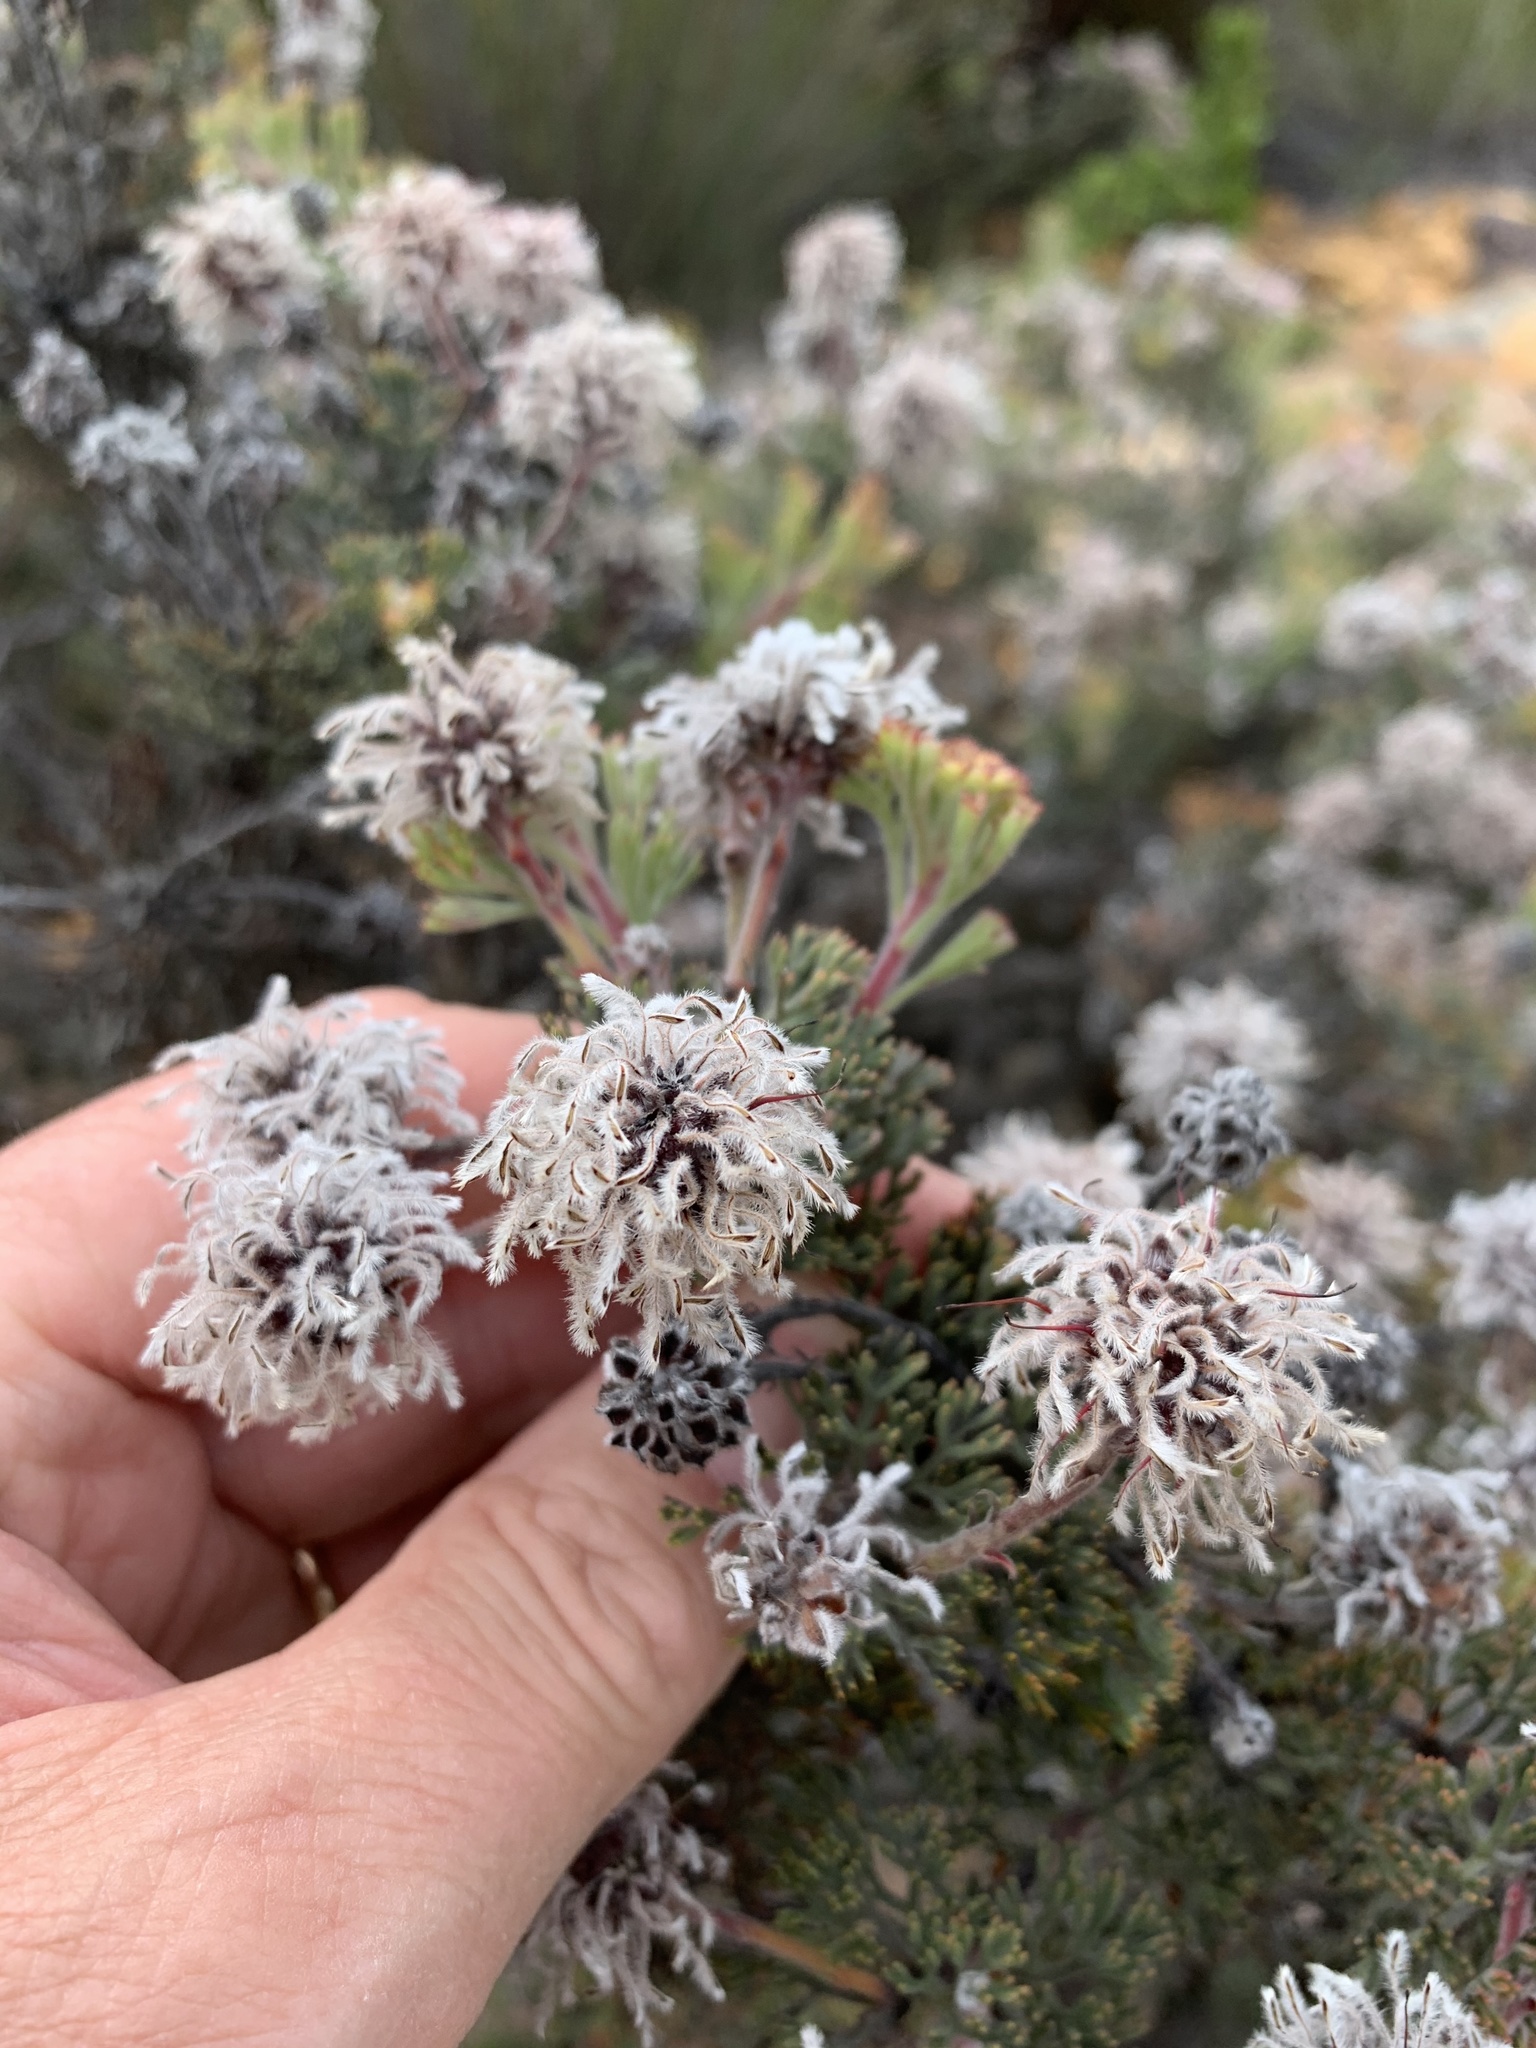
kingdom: Plantae
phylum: Tracheophyta
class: Magnoliopsida
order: Proteales
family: Proteaceae
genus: Serruria
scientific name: Serruria aitonii
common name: Marshmallow spiderhead
